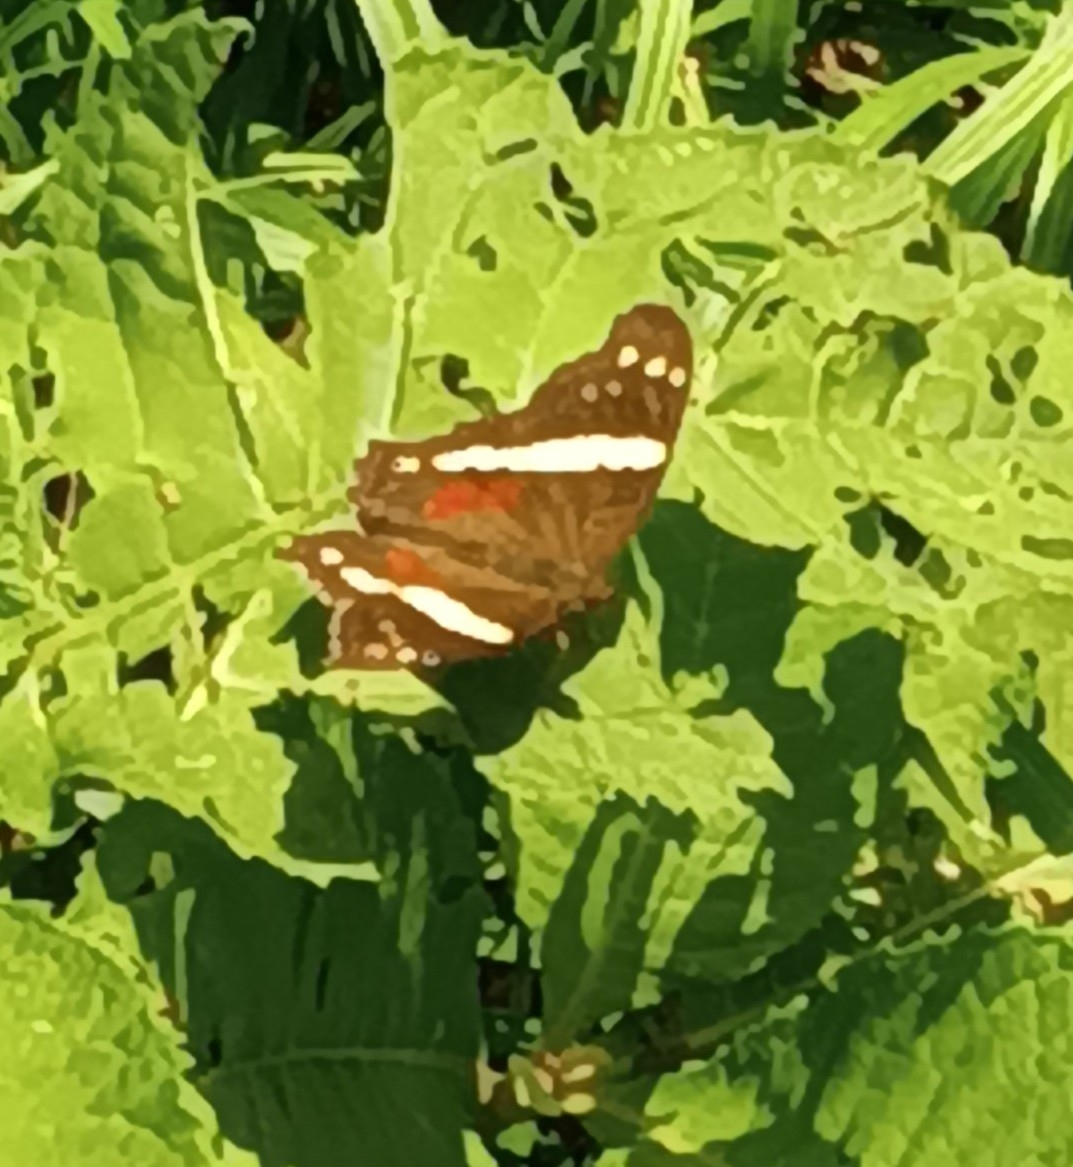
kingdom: Animalia
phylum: Arthropoda
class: Insecta
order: Lepidoptera
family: Nymphalidae
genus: Anartia
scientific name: Anartia fatima
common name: Banded peacock
